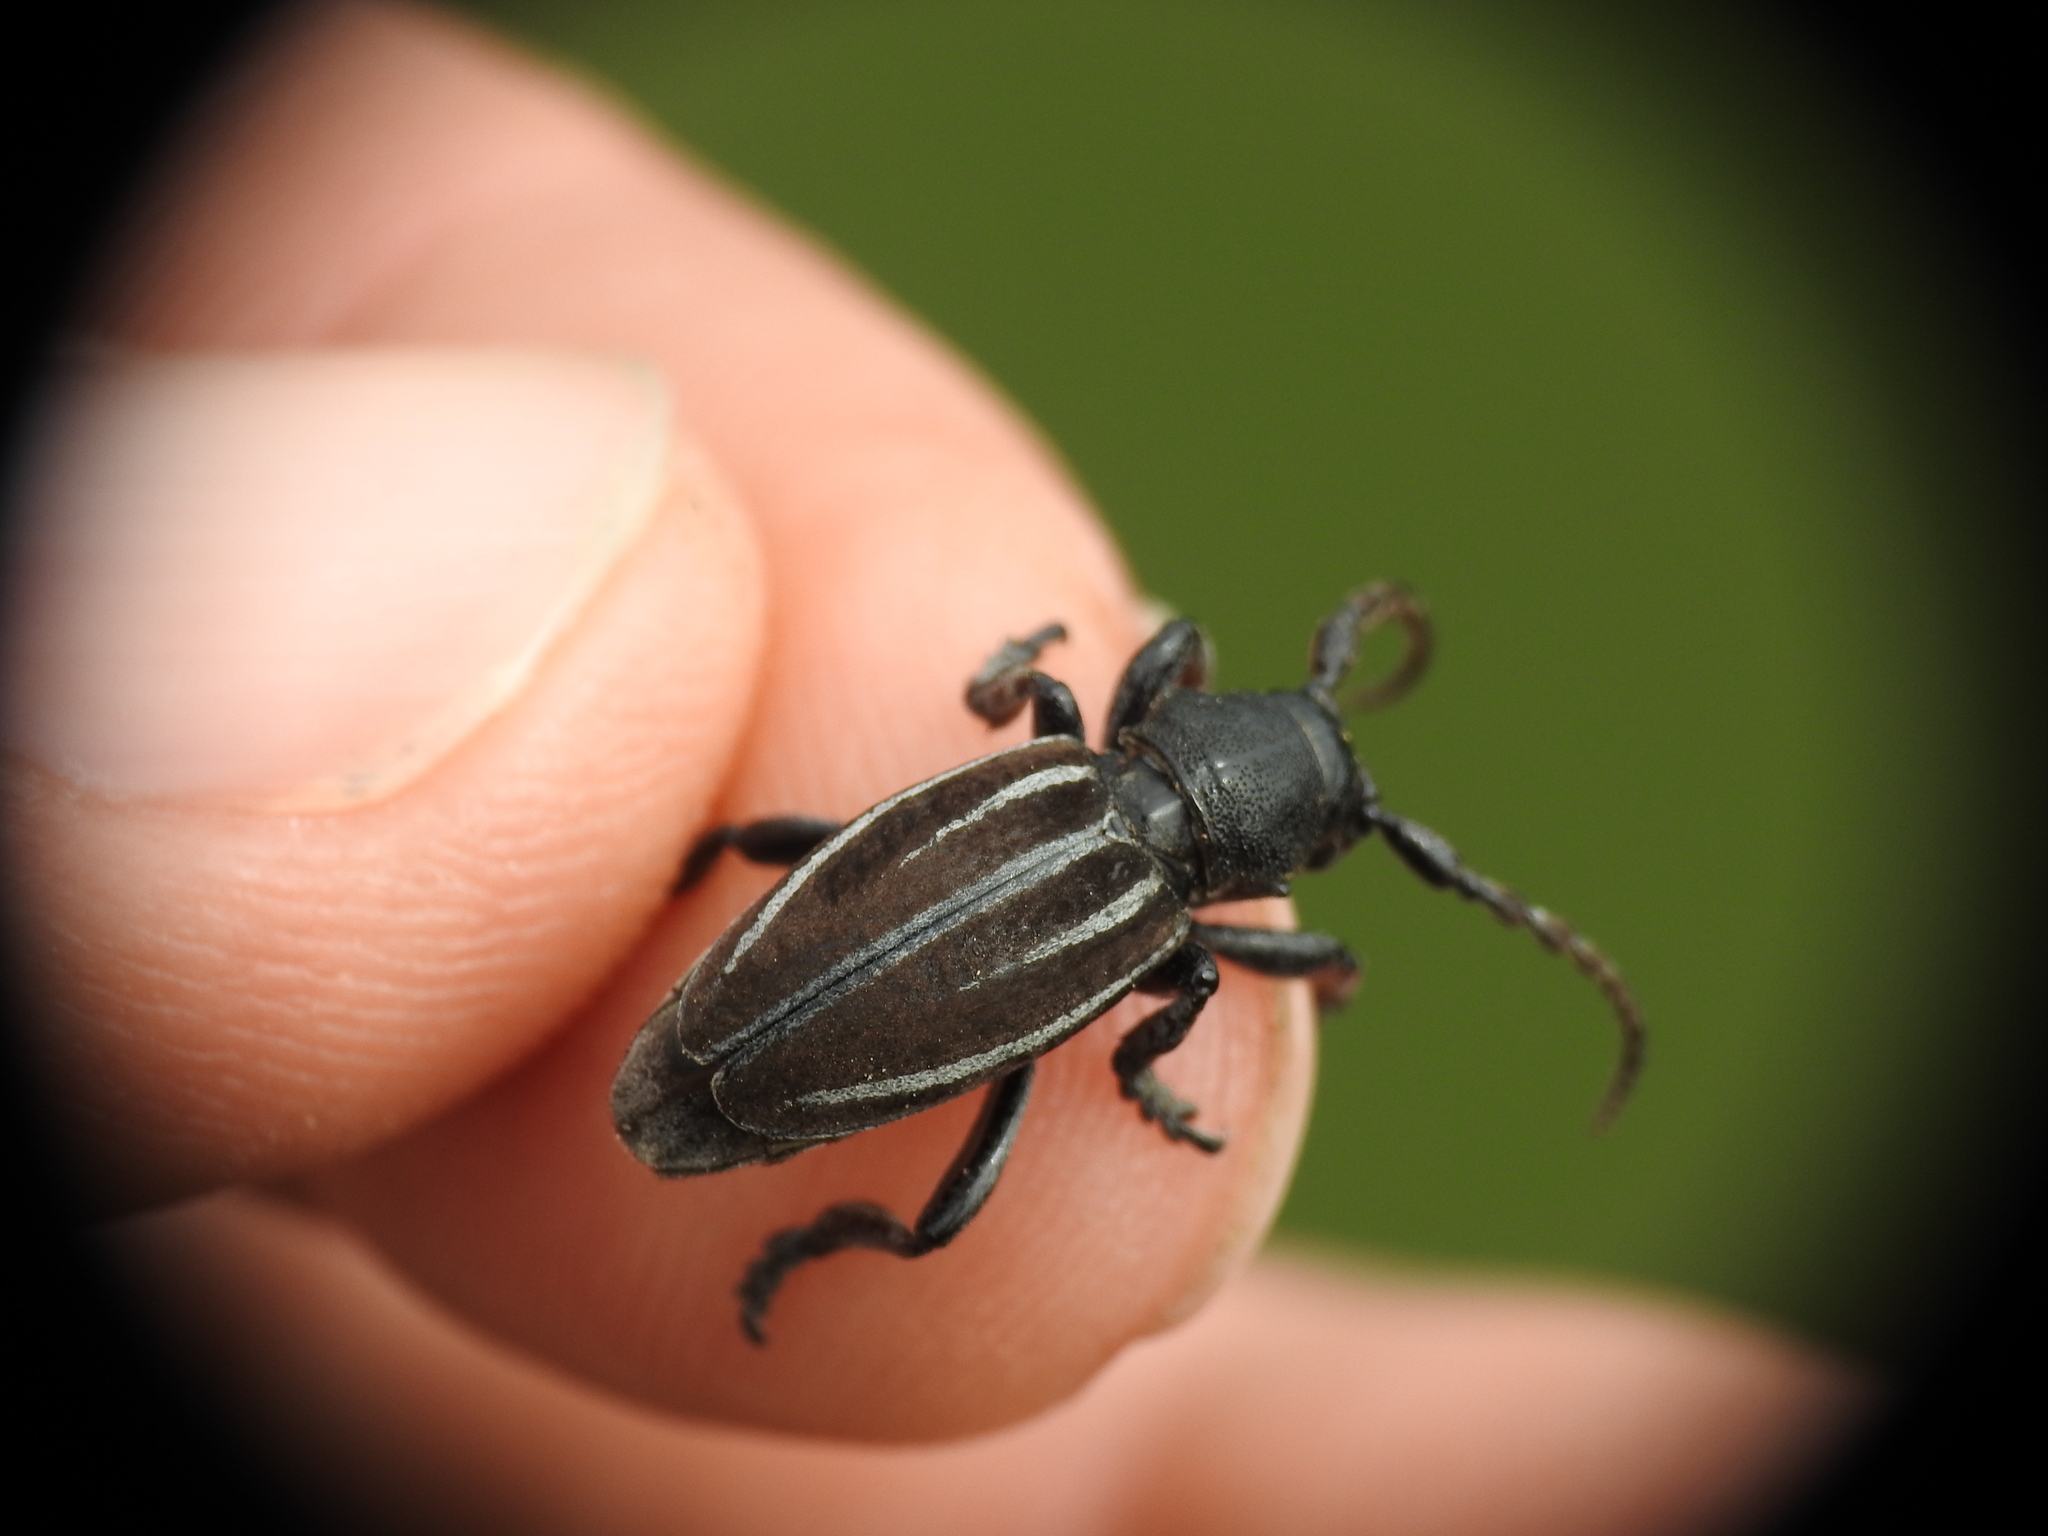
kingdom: Animalia
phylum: Arthropoda
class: Insecta
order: Coleoptera
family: Cerambycidae
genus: Iberodorcadion
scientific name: Iberodorcadion fuliginator
